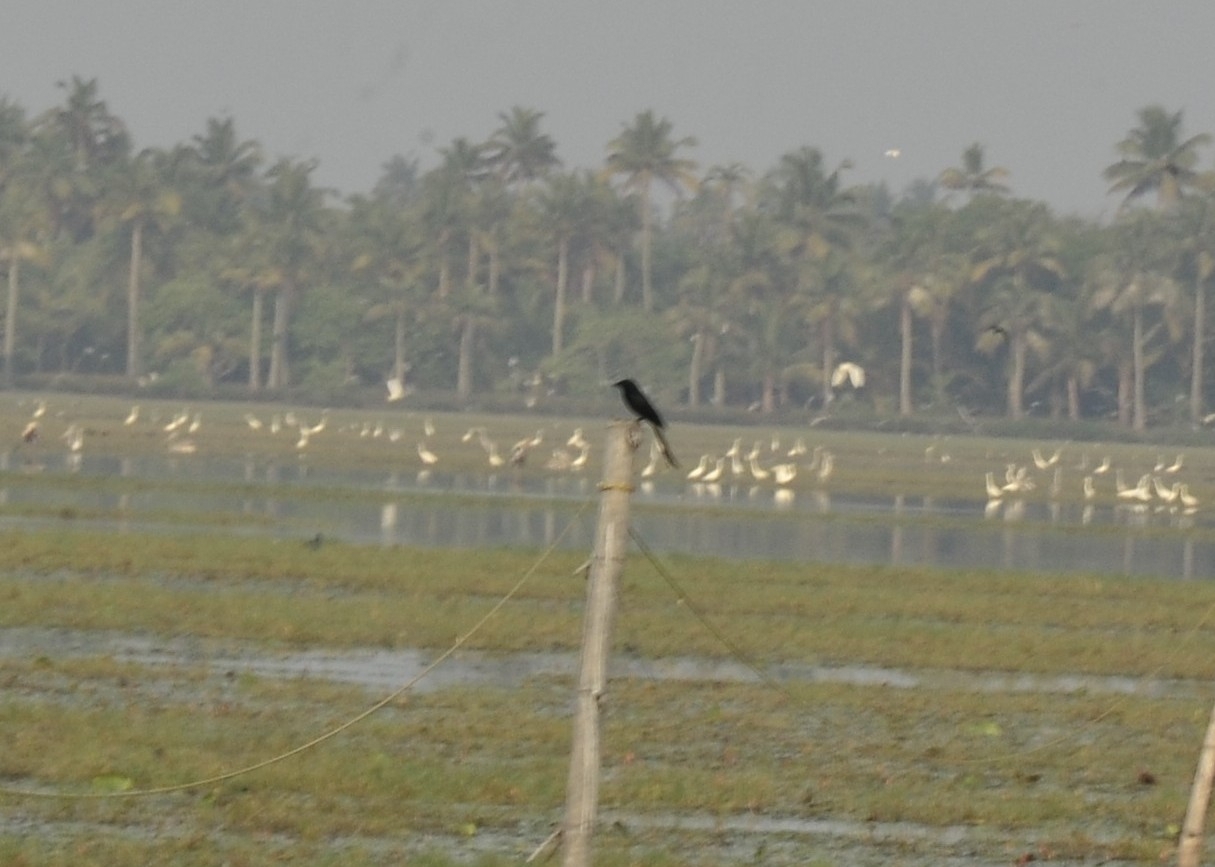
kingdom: Animalia
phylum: Chordata
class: Aves
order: Passeriformes
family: Dicruridae
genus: Dicrurus
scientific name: Dicrurus macrocercus
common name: Black drongo
